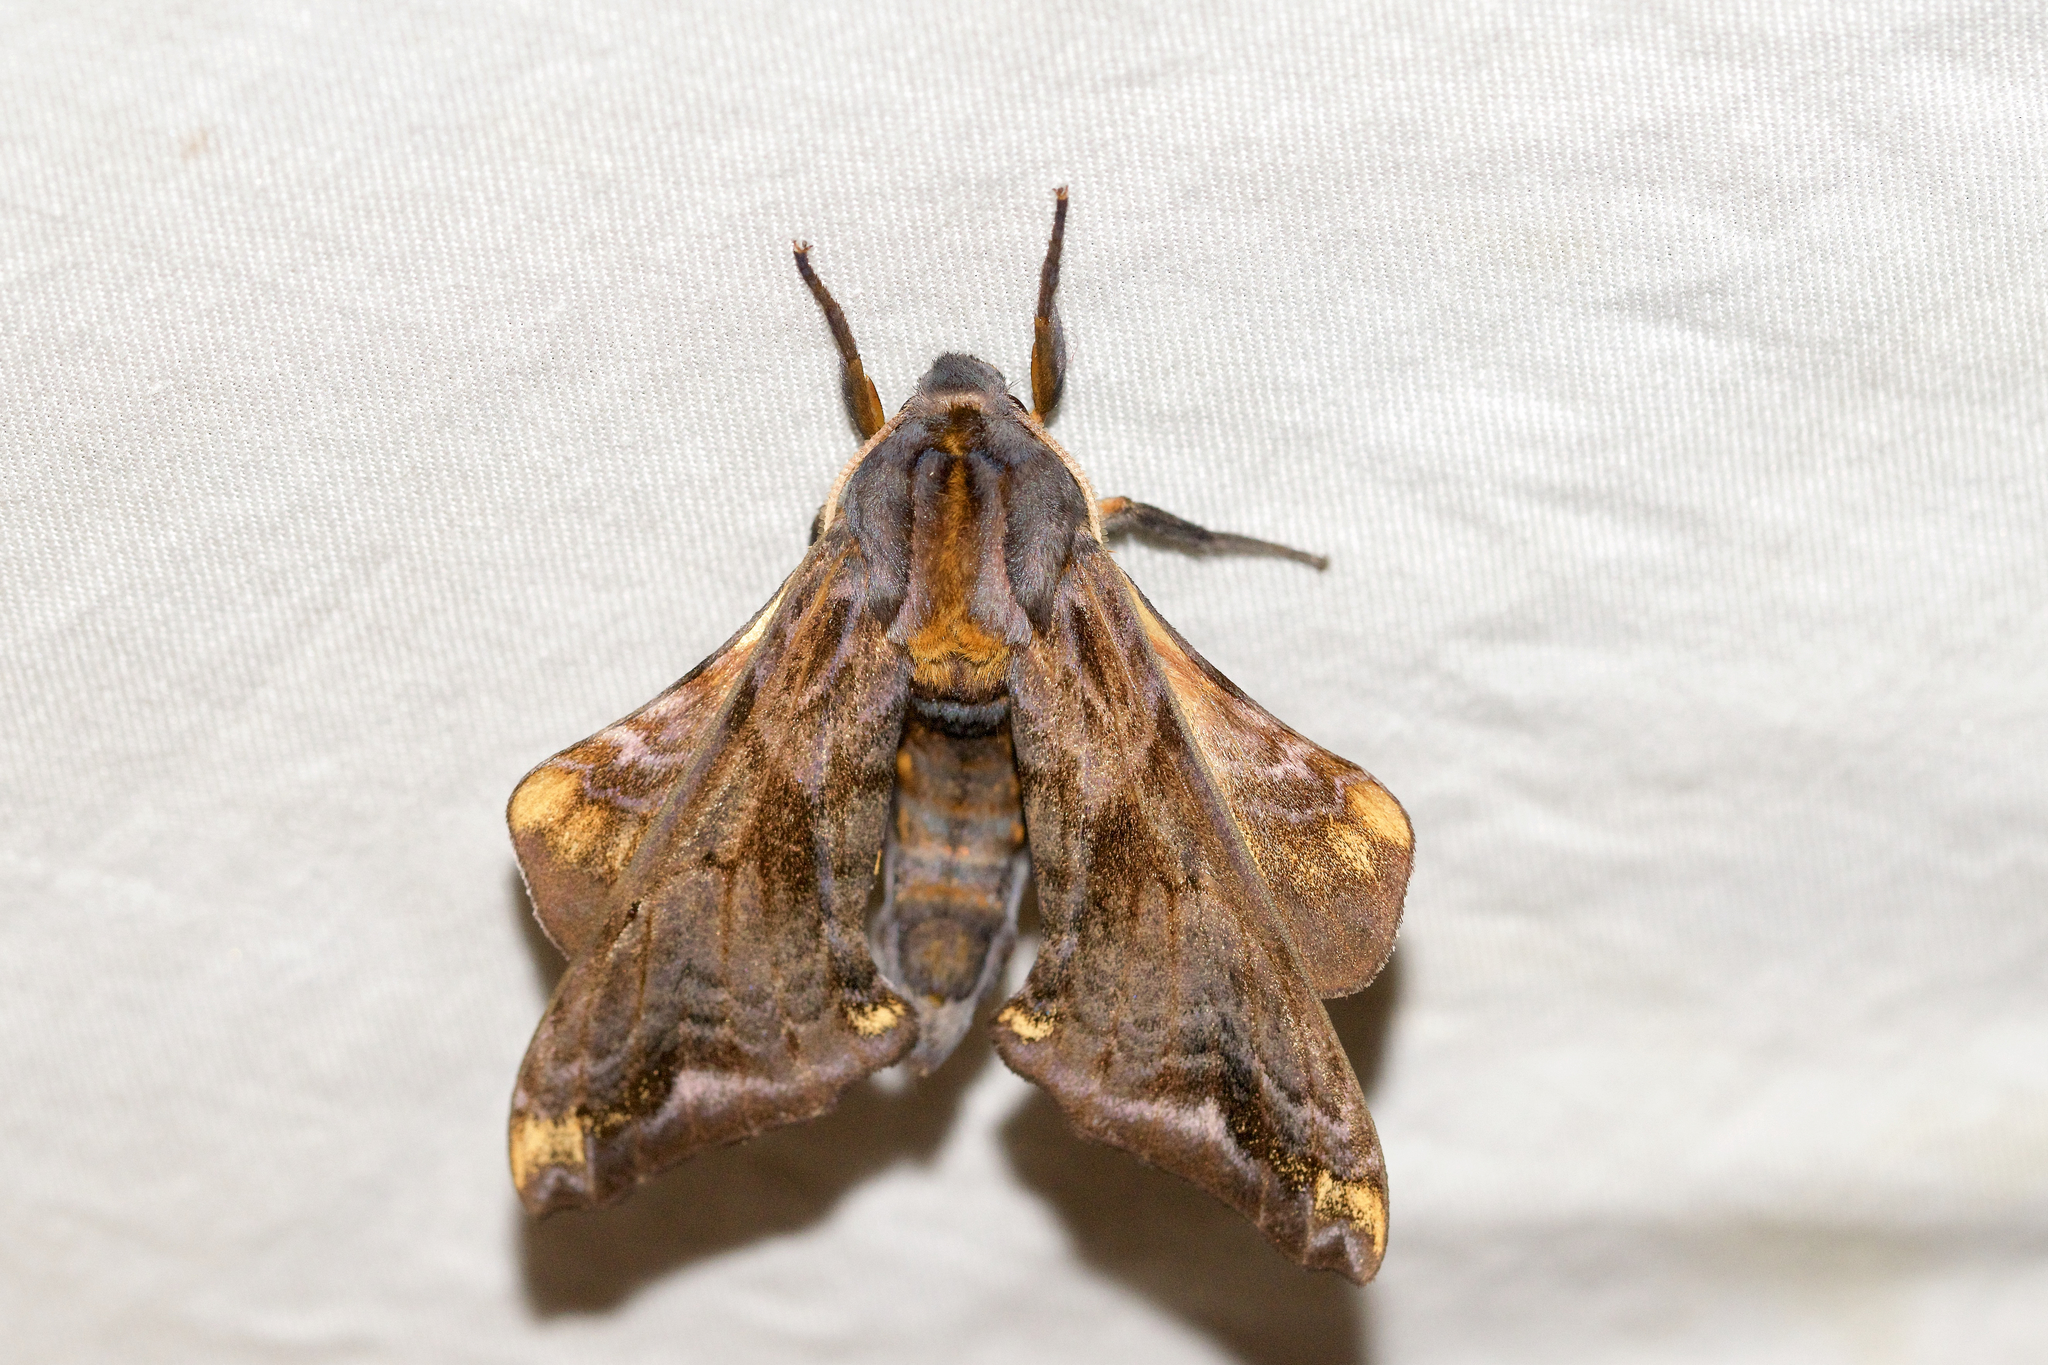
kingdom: Animalia
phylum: Arthropoda
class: Insecta
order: Lepidoptera
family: Sphingidae
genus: Paonias
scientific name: Paonias myops
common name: Small-eyed sphinx
